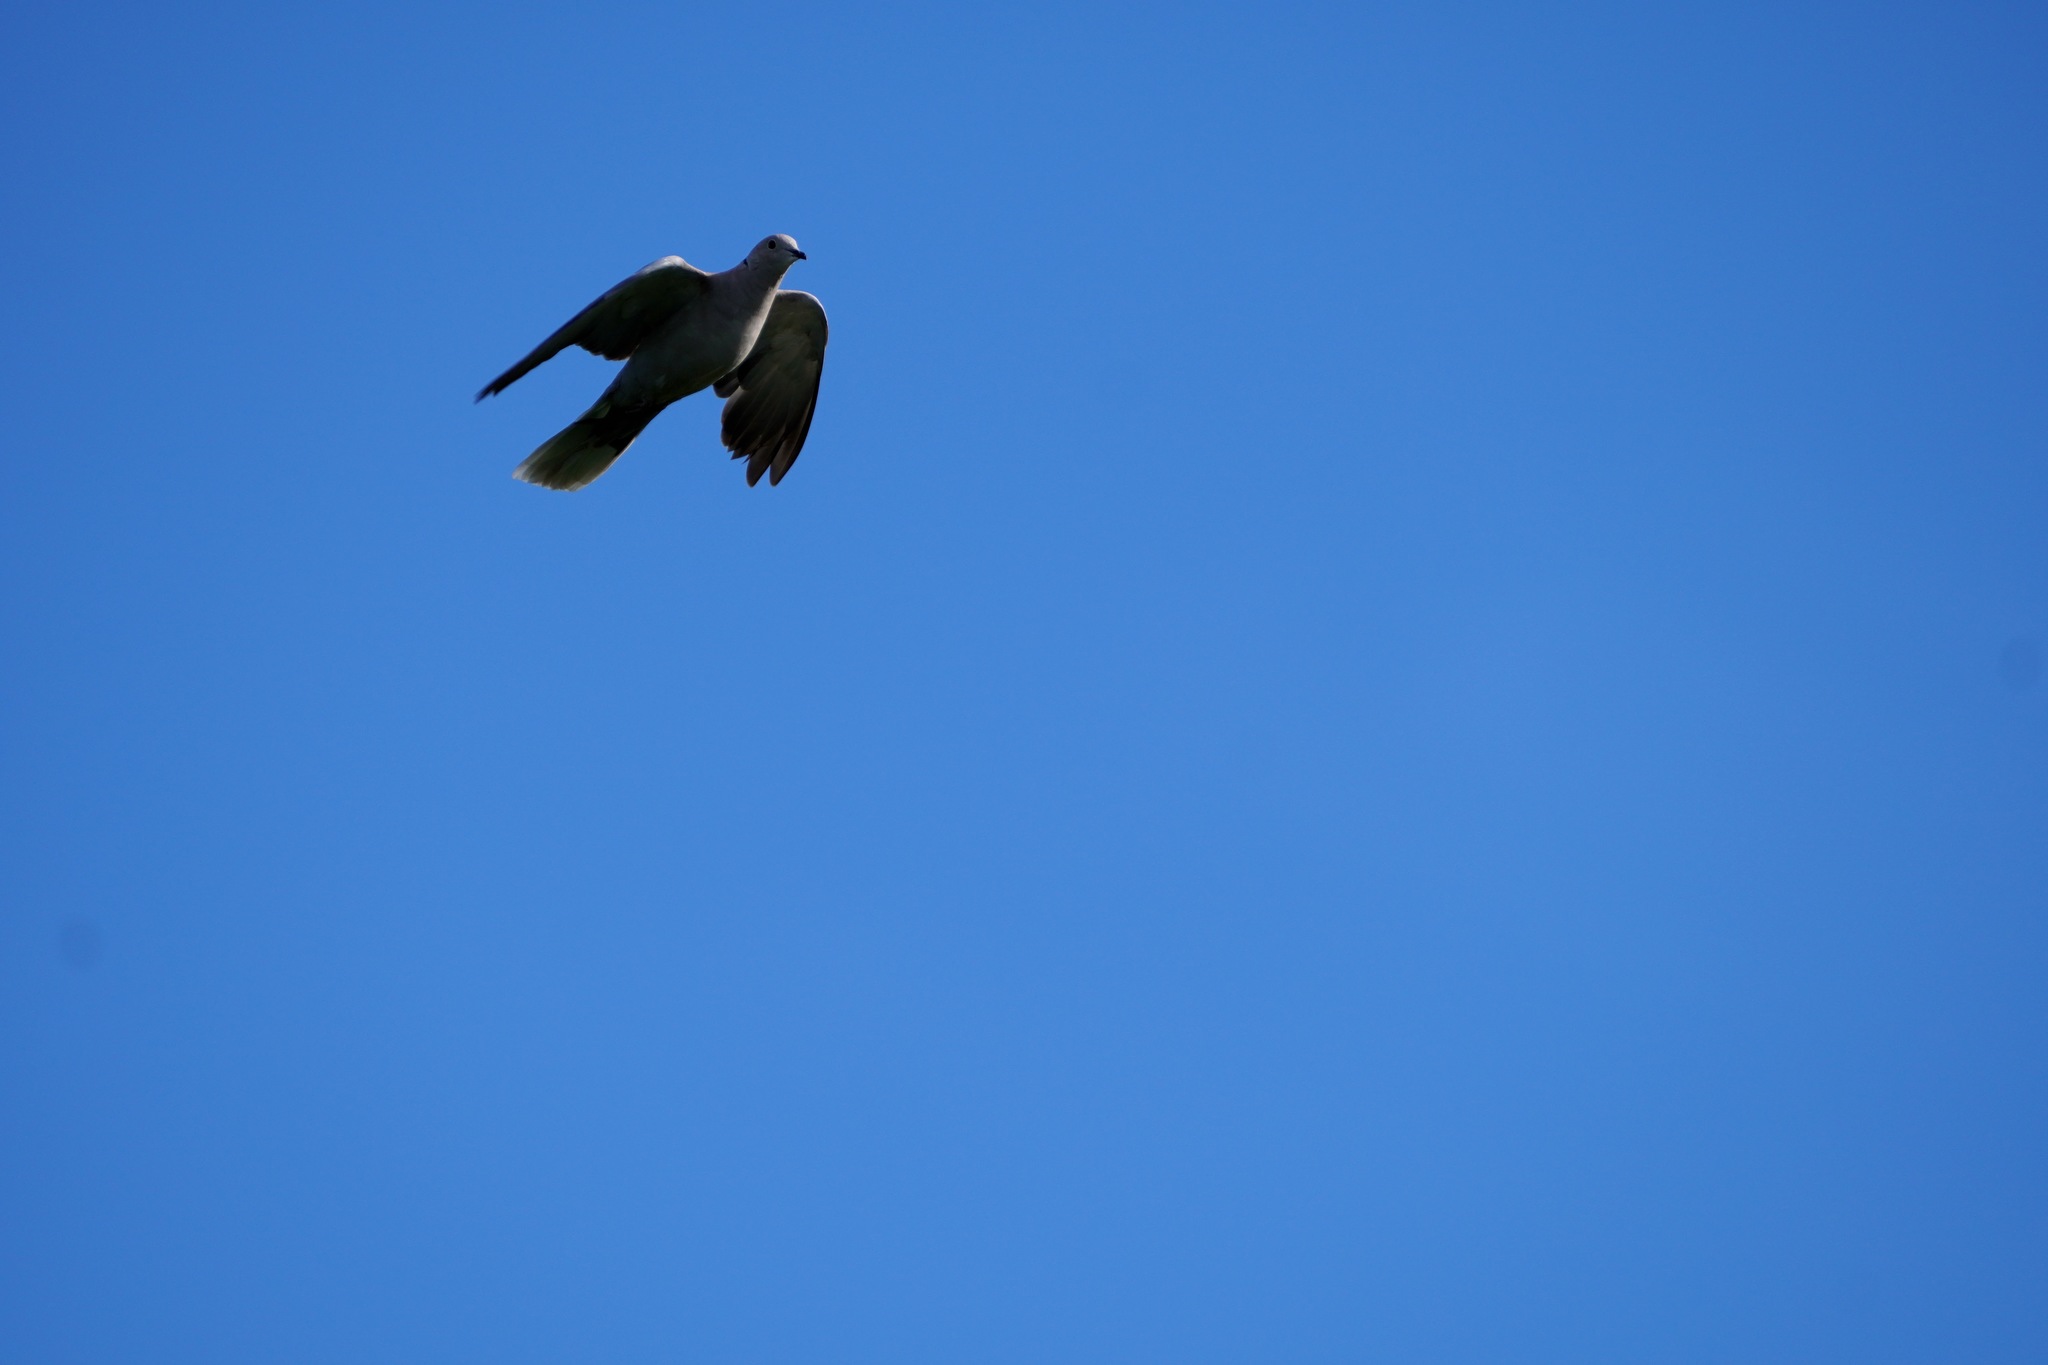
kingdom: Animalia
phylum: Chordata
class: Aves
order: Columbiformes
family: Columbidae
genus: Streptopelia
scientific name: Streptopelia decaocto
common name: Eurasian collared dove
